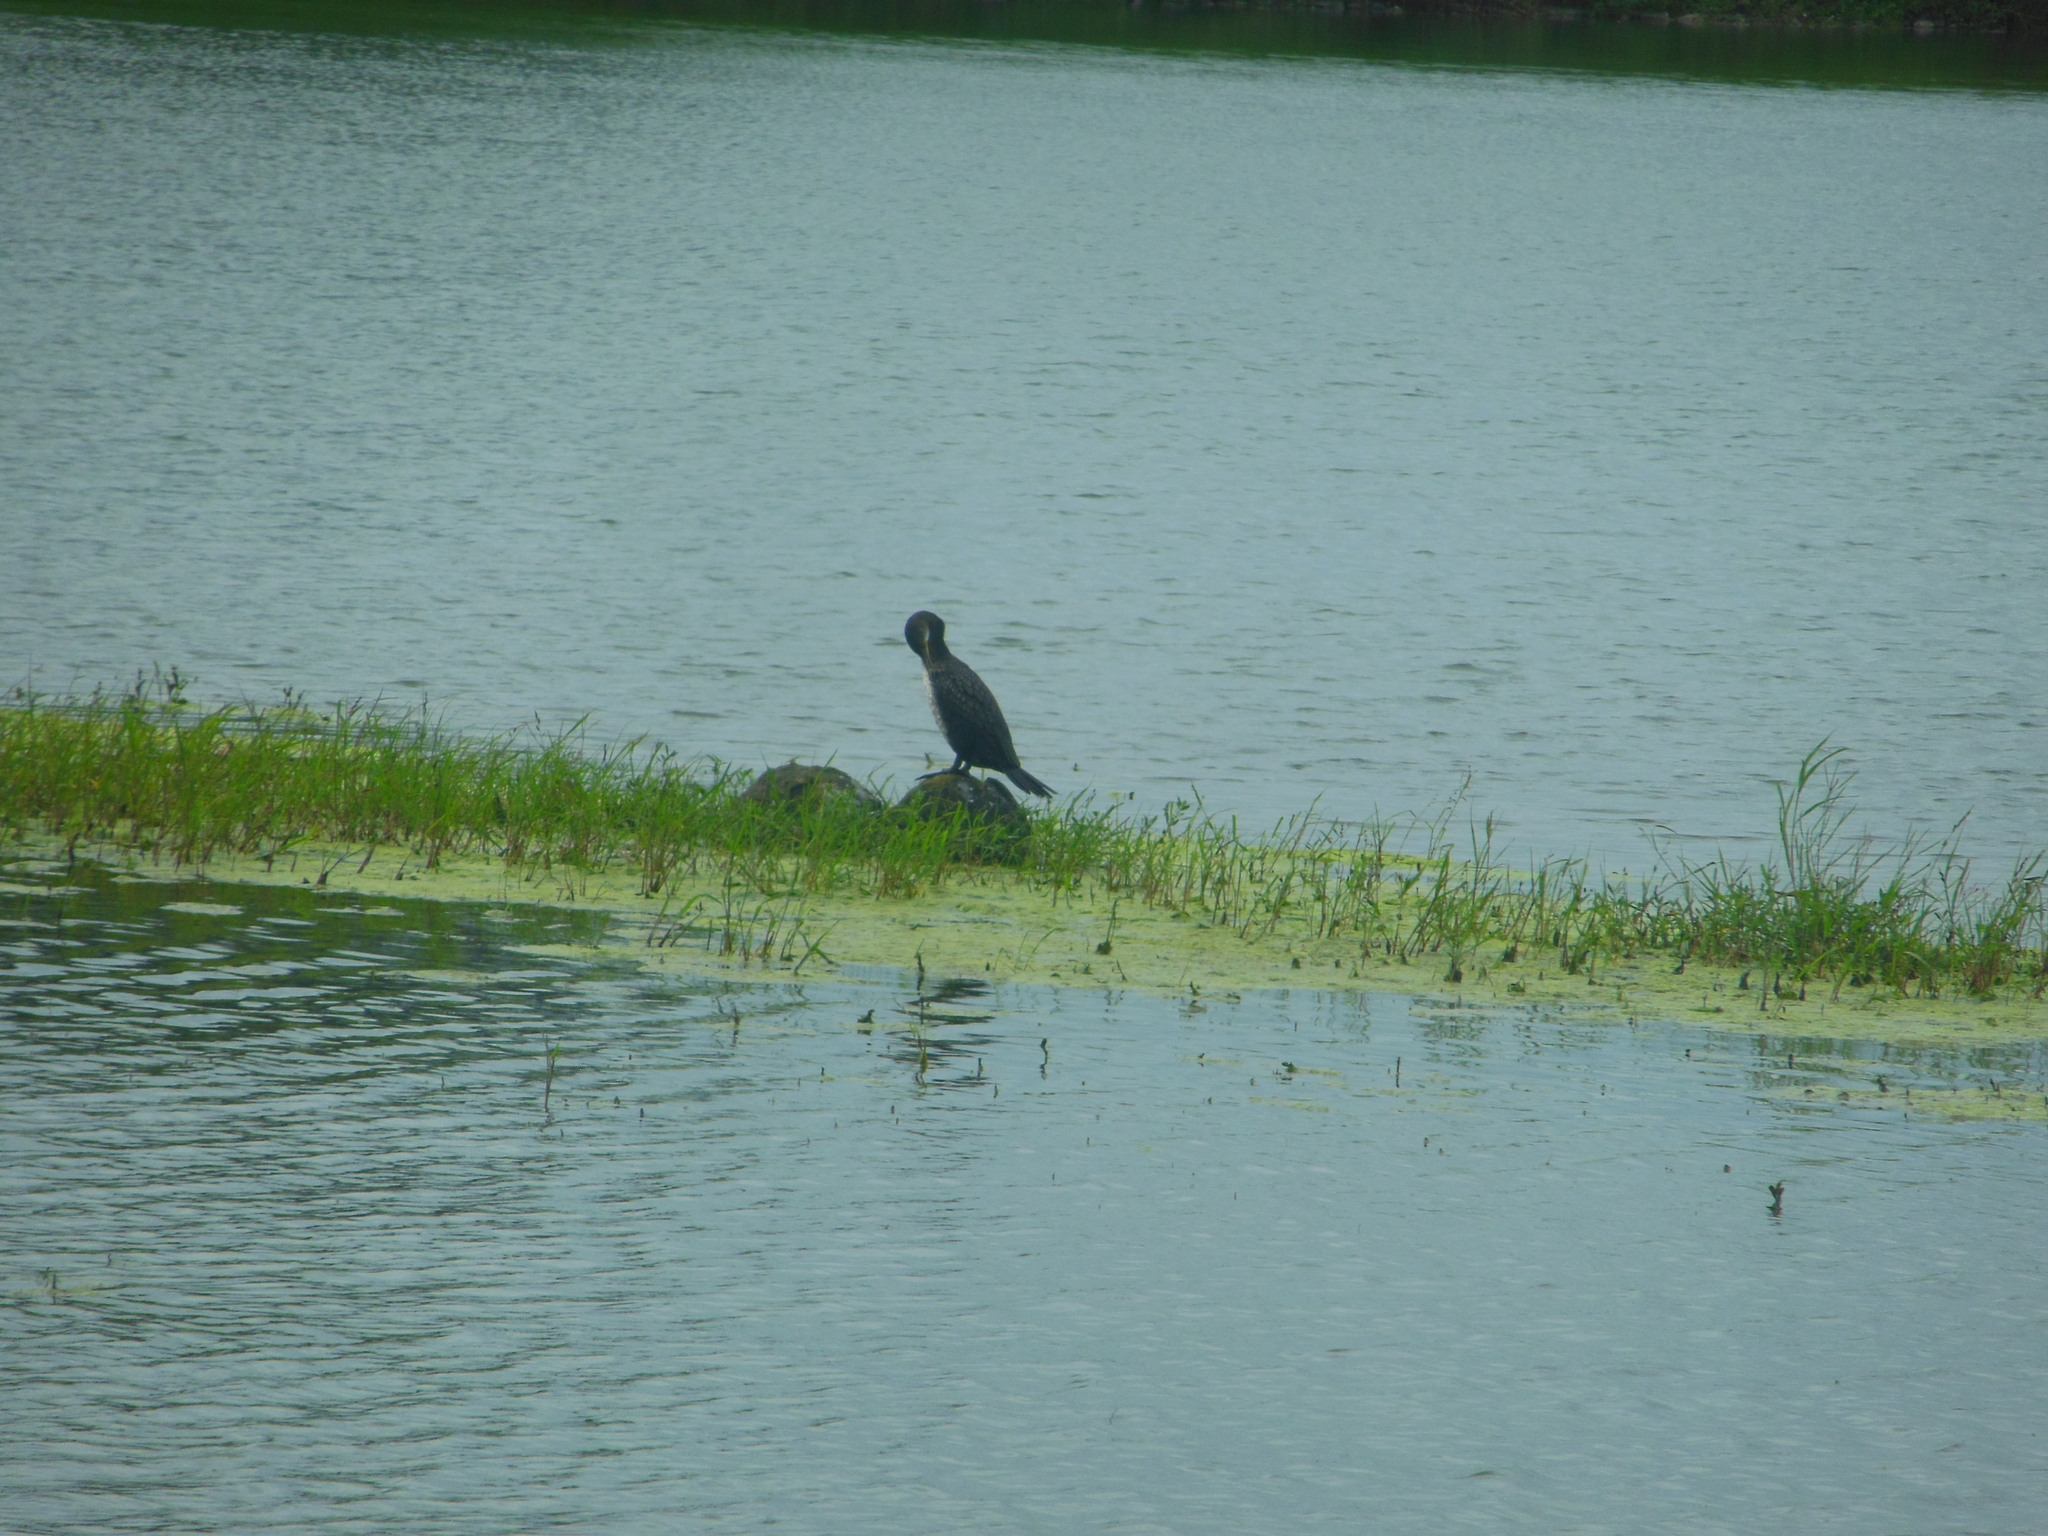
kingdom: Animalia
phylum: Chordata
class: Aves
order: Suliformes
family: Phalacrocoracidae
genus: Phalacrocorax
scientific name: Phalacrocorax fuscicollis
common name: Indian cormorant
